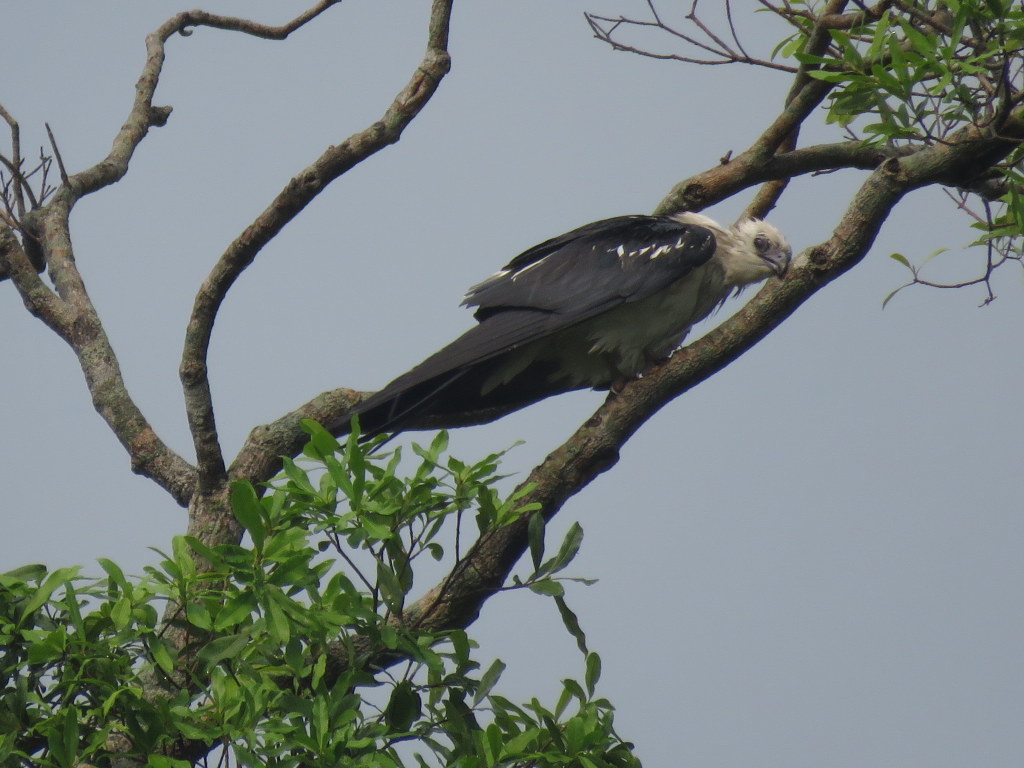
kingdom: Animalia
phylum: Chordata
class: Aves
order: Accipitriformes
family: Accipitridae
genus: Elanoides
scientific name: Elanoides forficatus
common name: Swallow-tailed kite
